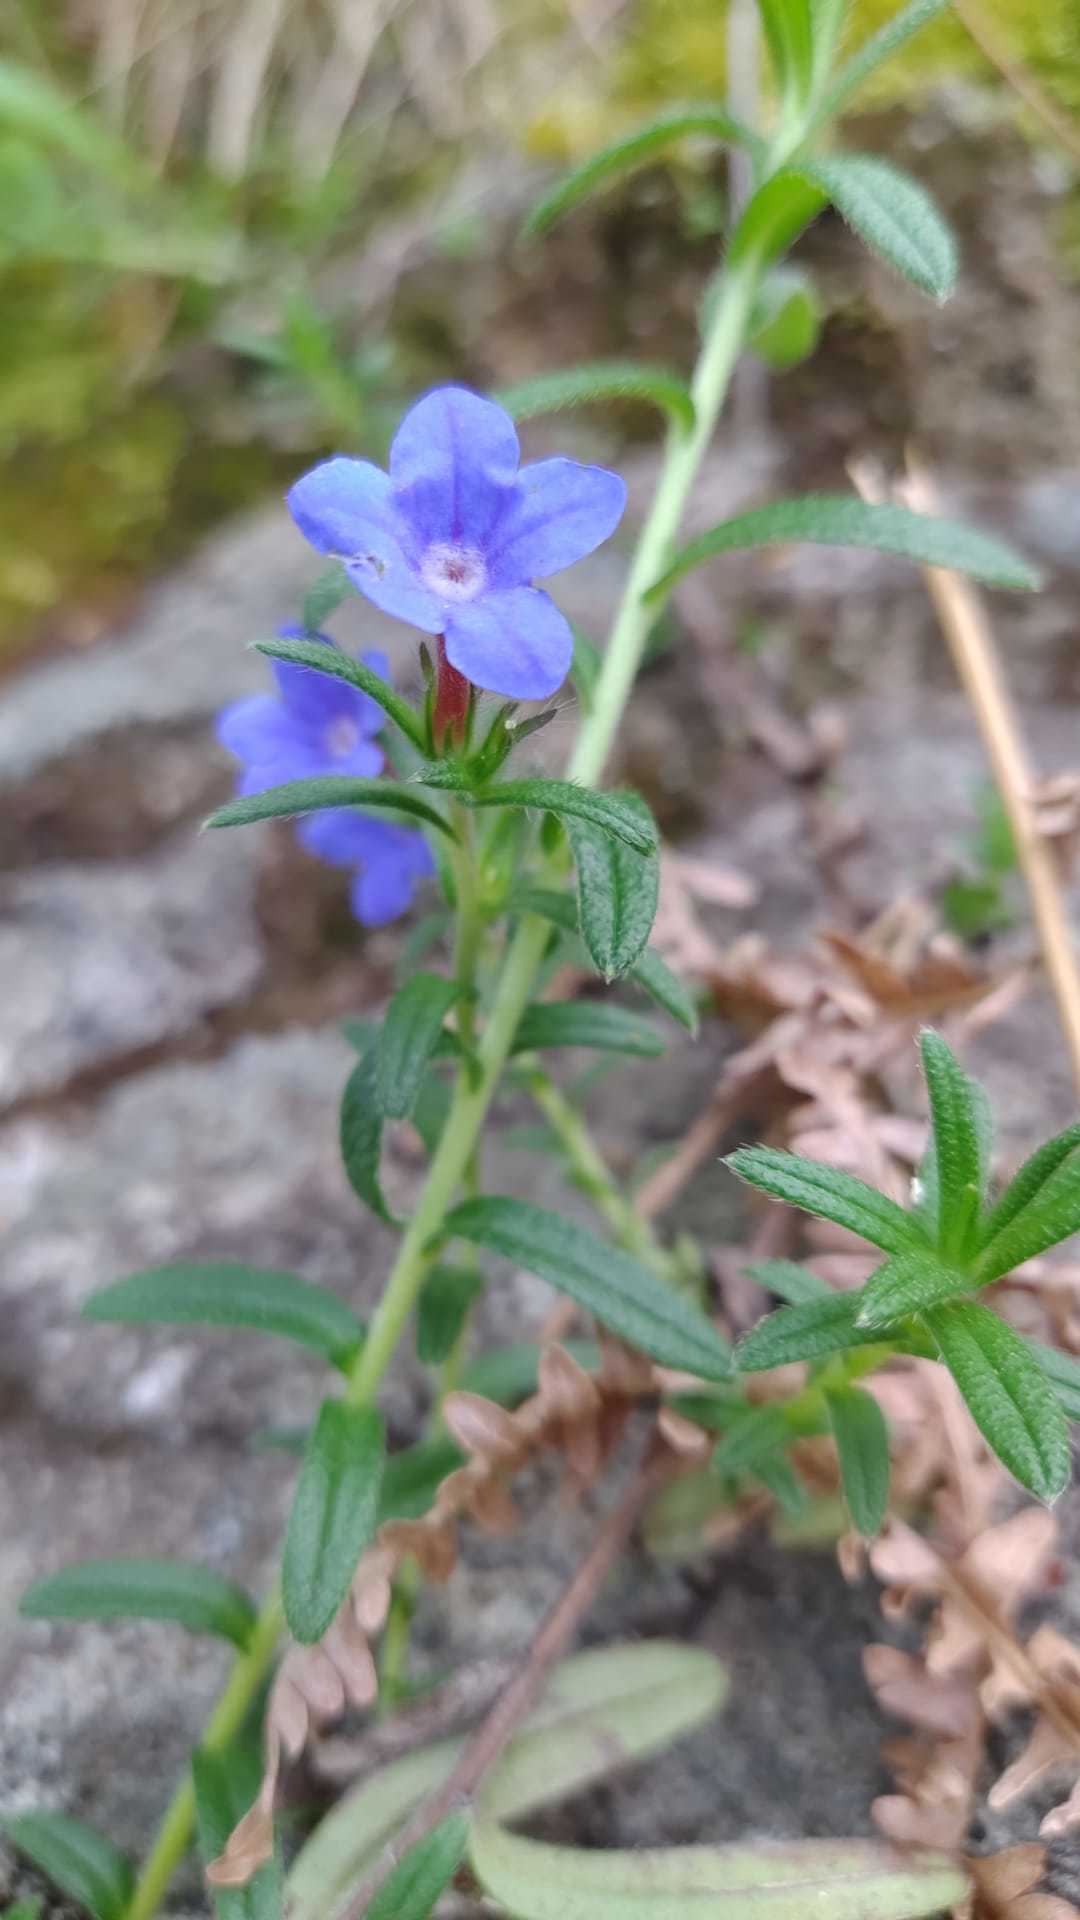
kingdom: Plantae
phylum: Tracheophyta
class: Magnoliopsida
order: Boraginales
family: Boraginaceae
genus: Glandora
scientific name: Glandora prostrata
